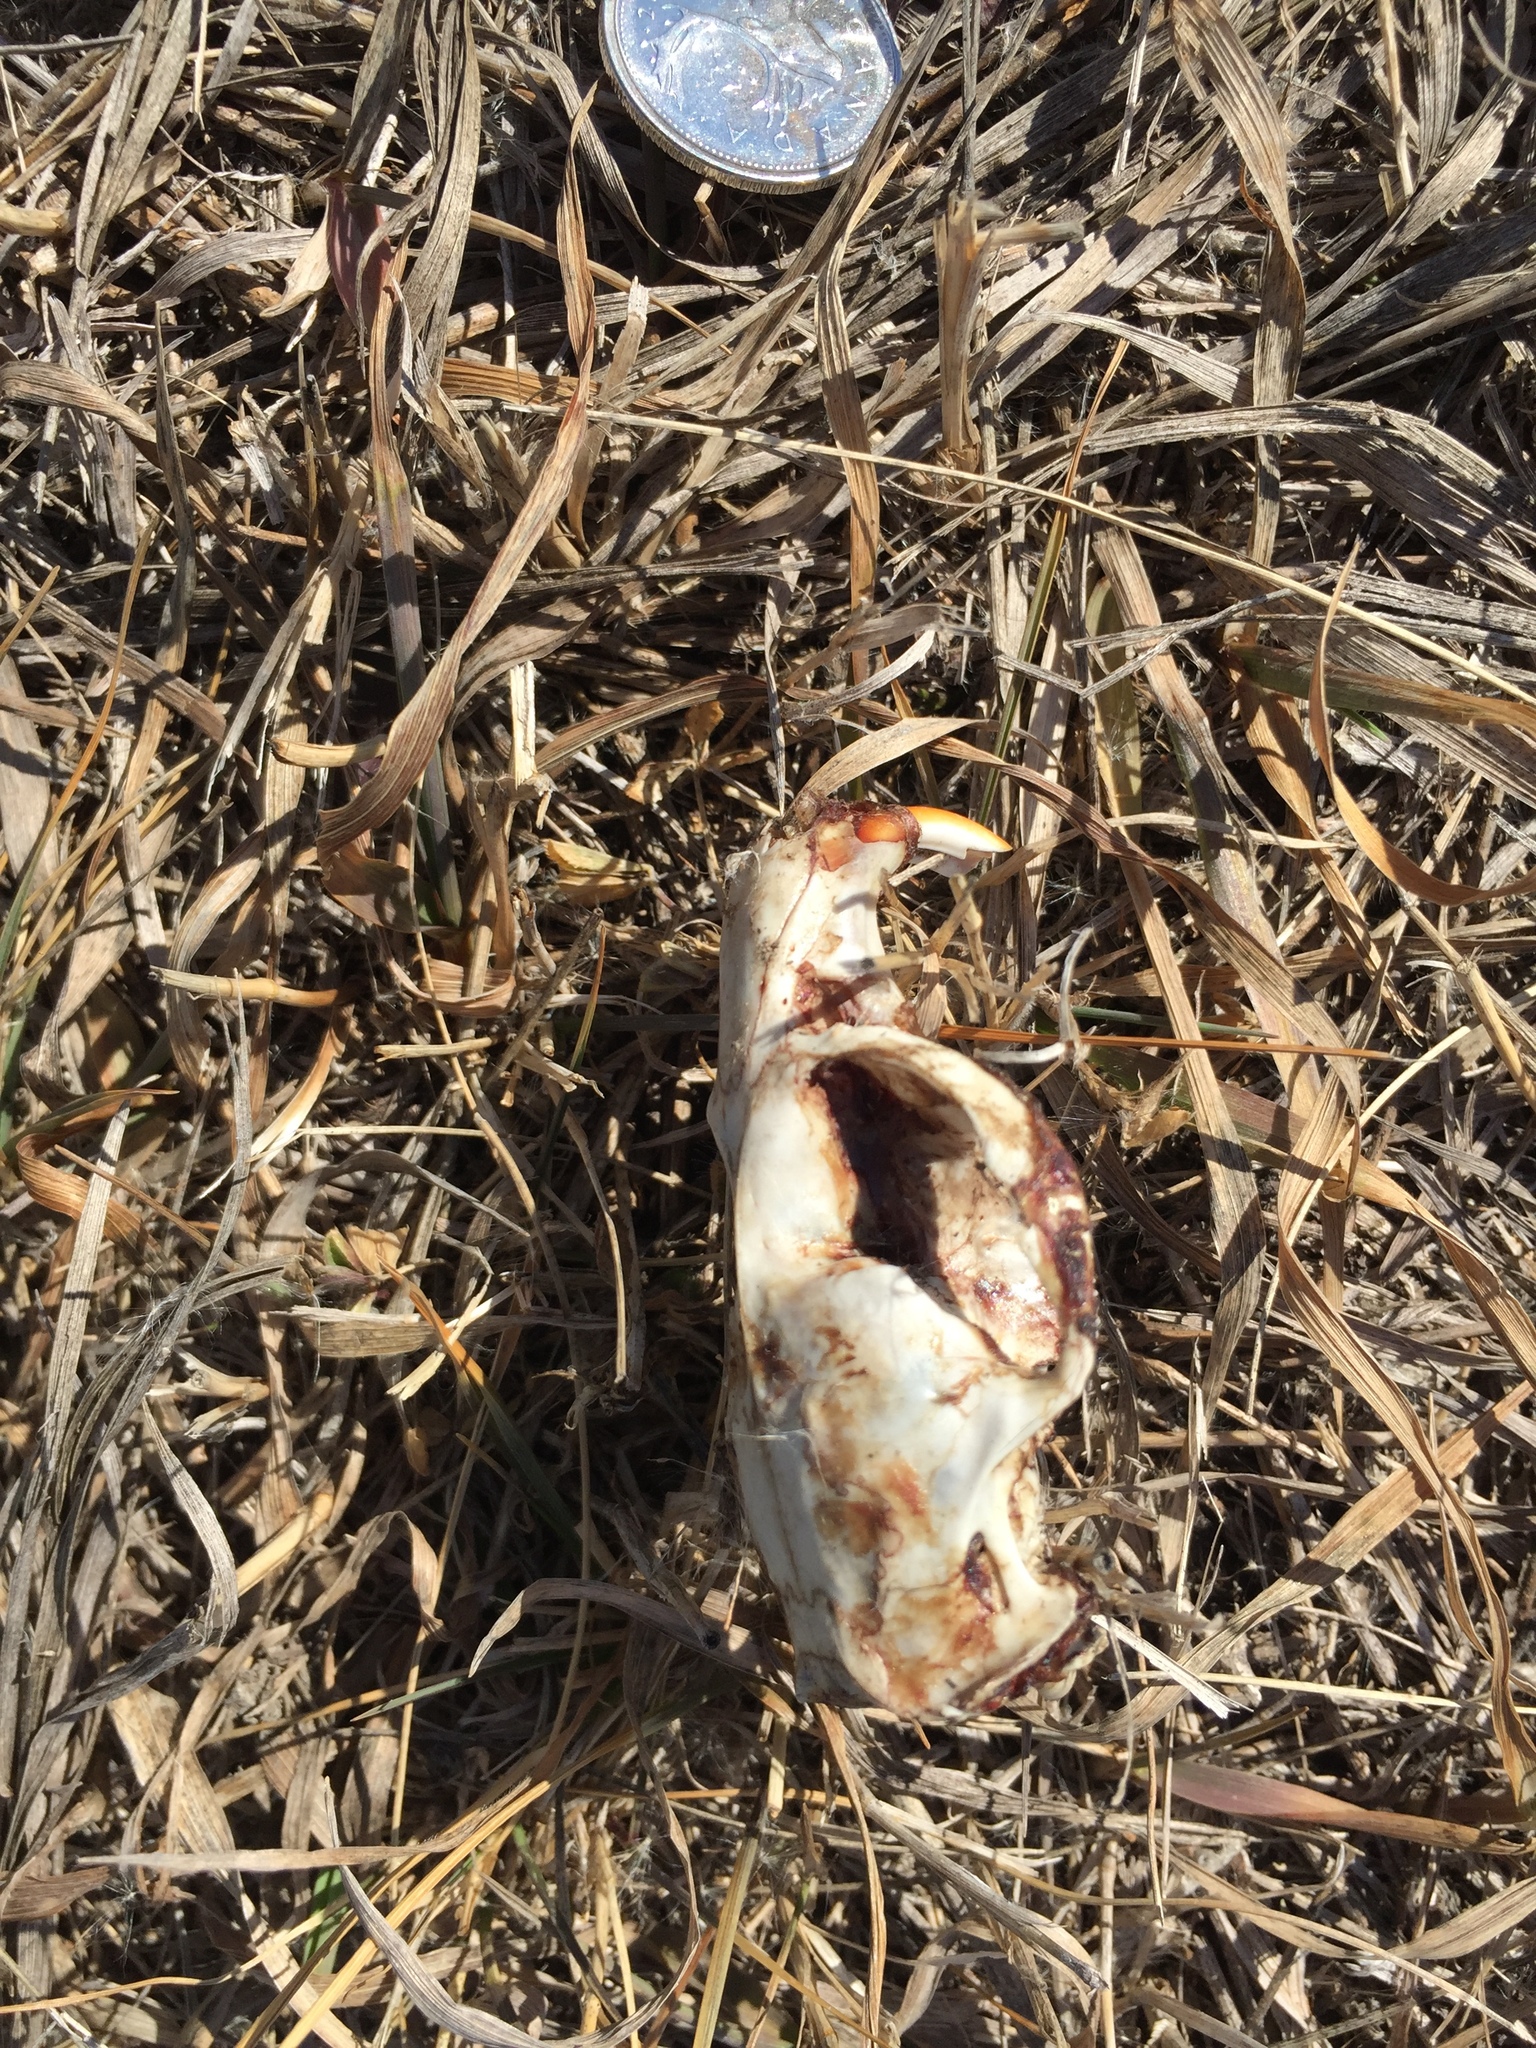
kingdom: Animalia
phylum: Chordata
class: Mammalia
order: Rodentia
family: Cricetidae
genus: Ondatra
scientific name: Ondatra zibethicus
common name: Muskrat
